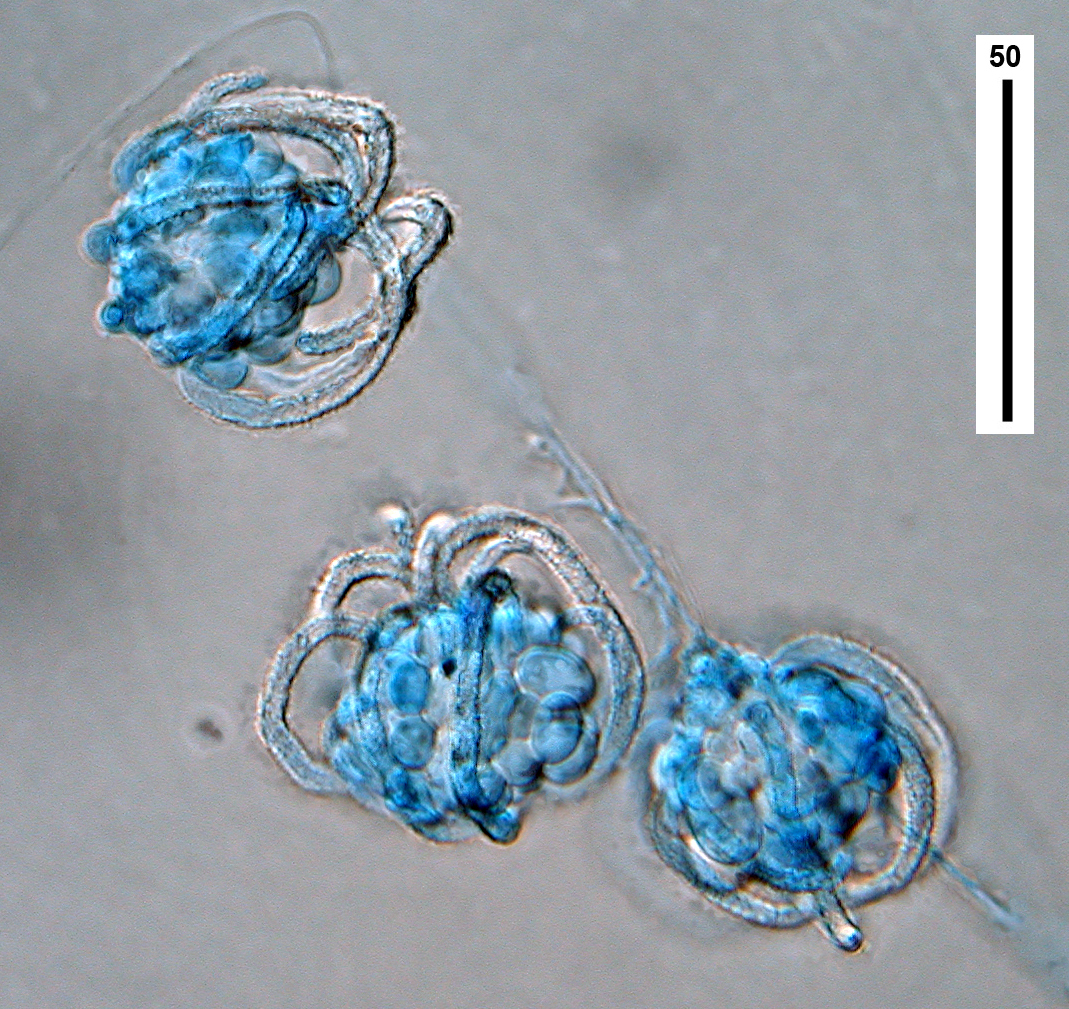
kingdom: Fungi
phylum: Basidiomycota
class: Agaricomycetes
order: Agaricales
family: Niaceae
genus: Peyronelina
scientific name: Peyronelina glomerulata
